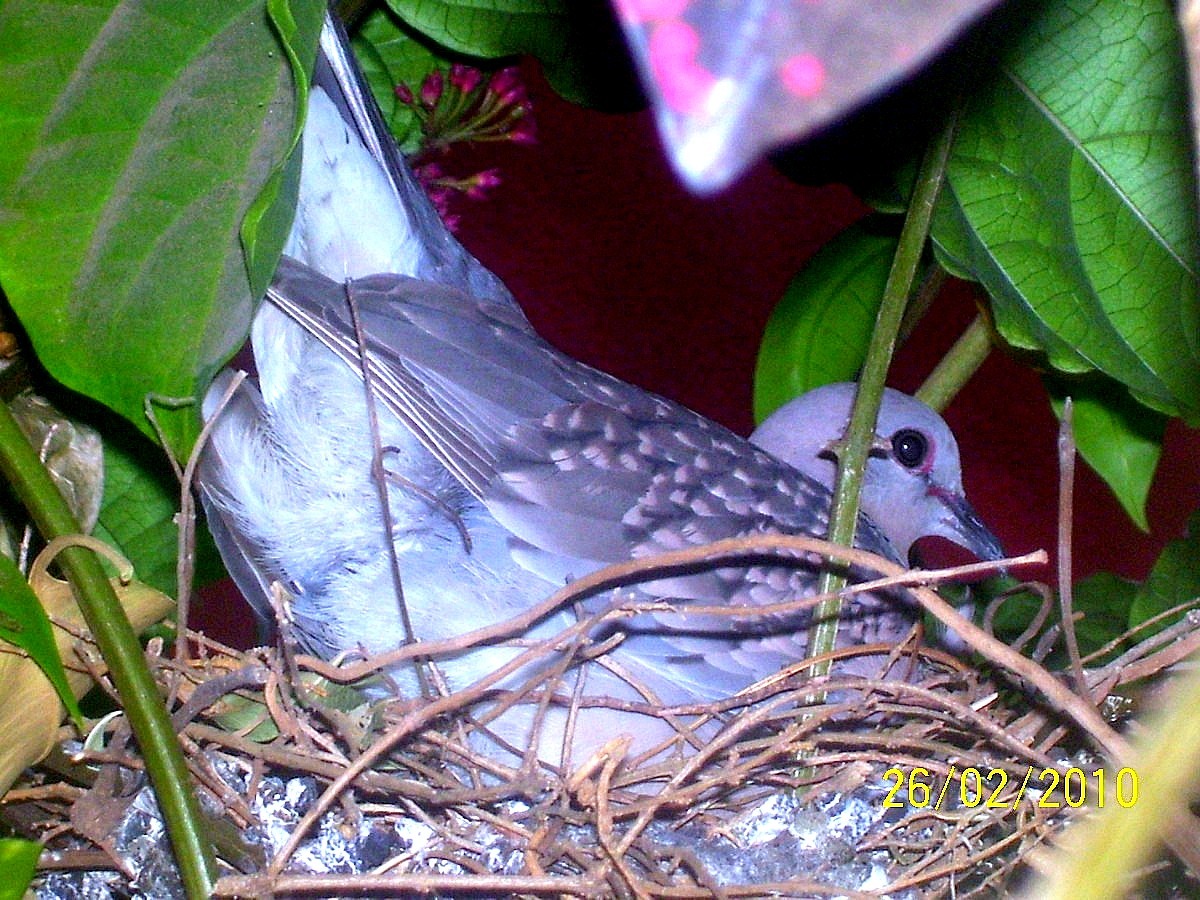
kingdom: Animalia
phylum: Chordata
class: Aves
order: Columbiformes
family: Columbidae
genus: Spilopelia
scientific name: Spilopelia chinensis
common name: Spotted dove
